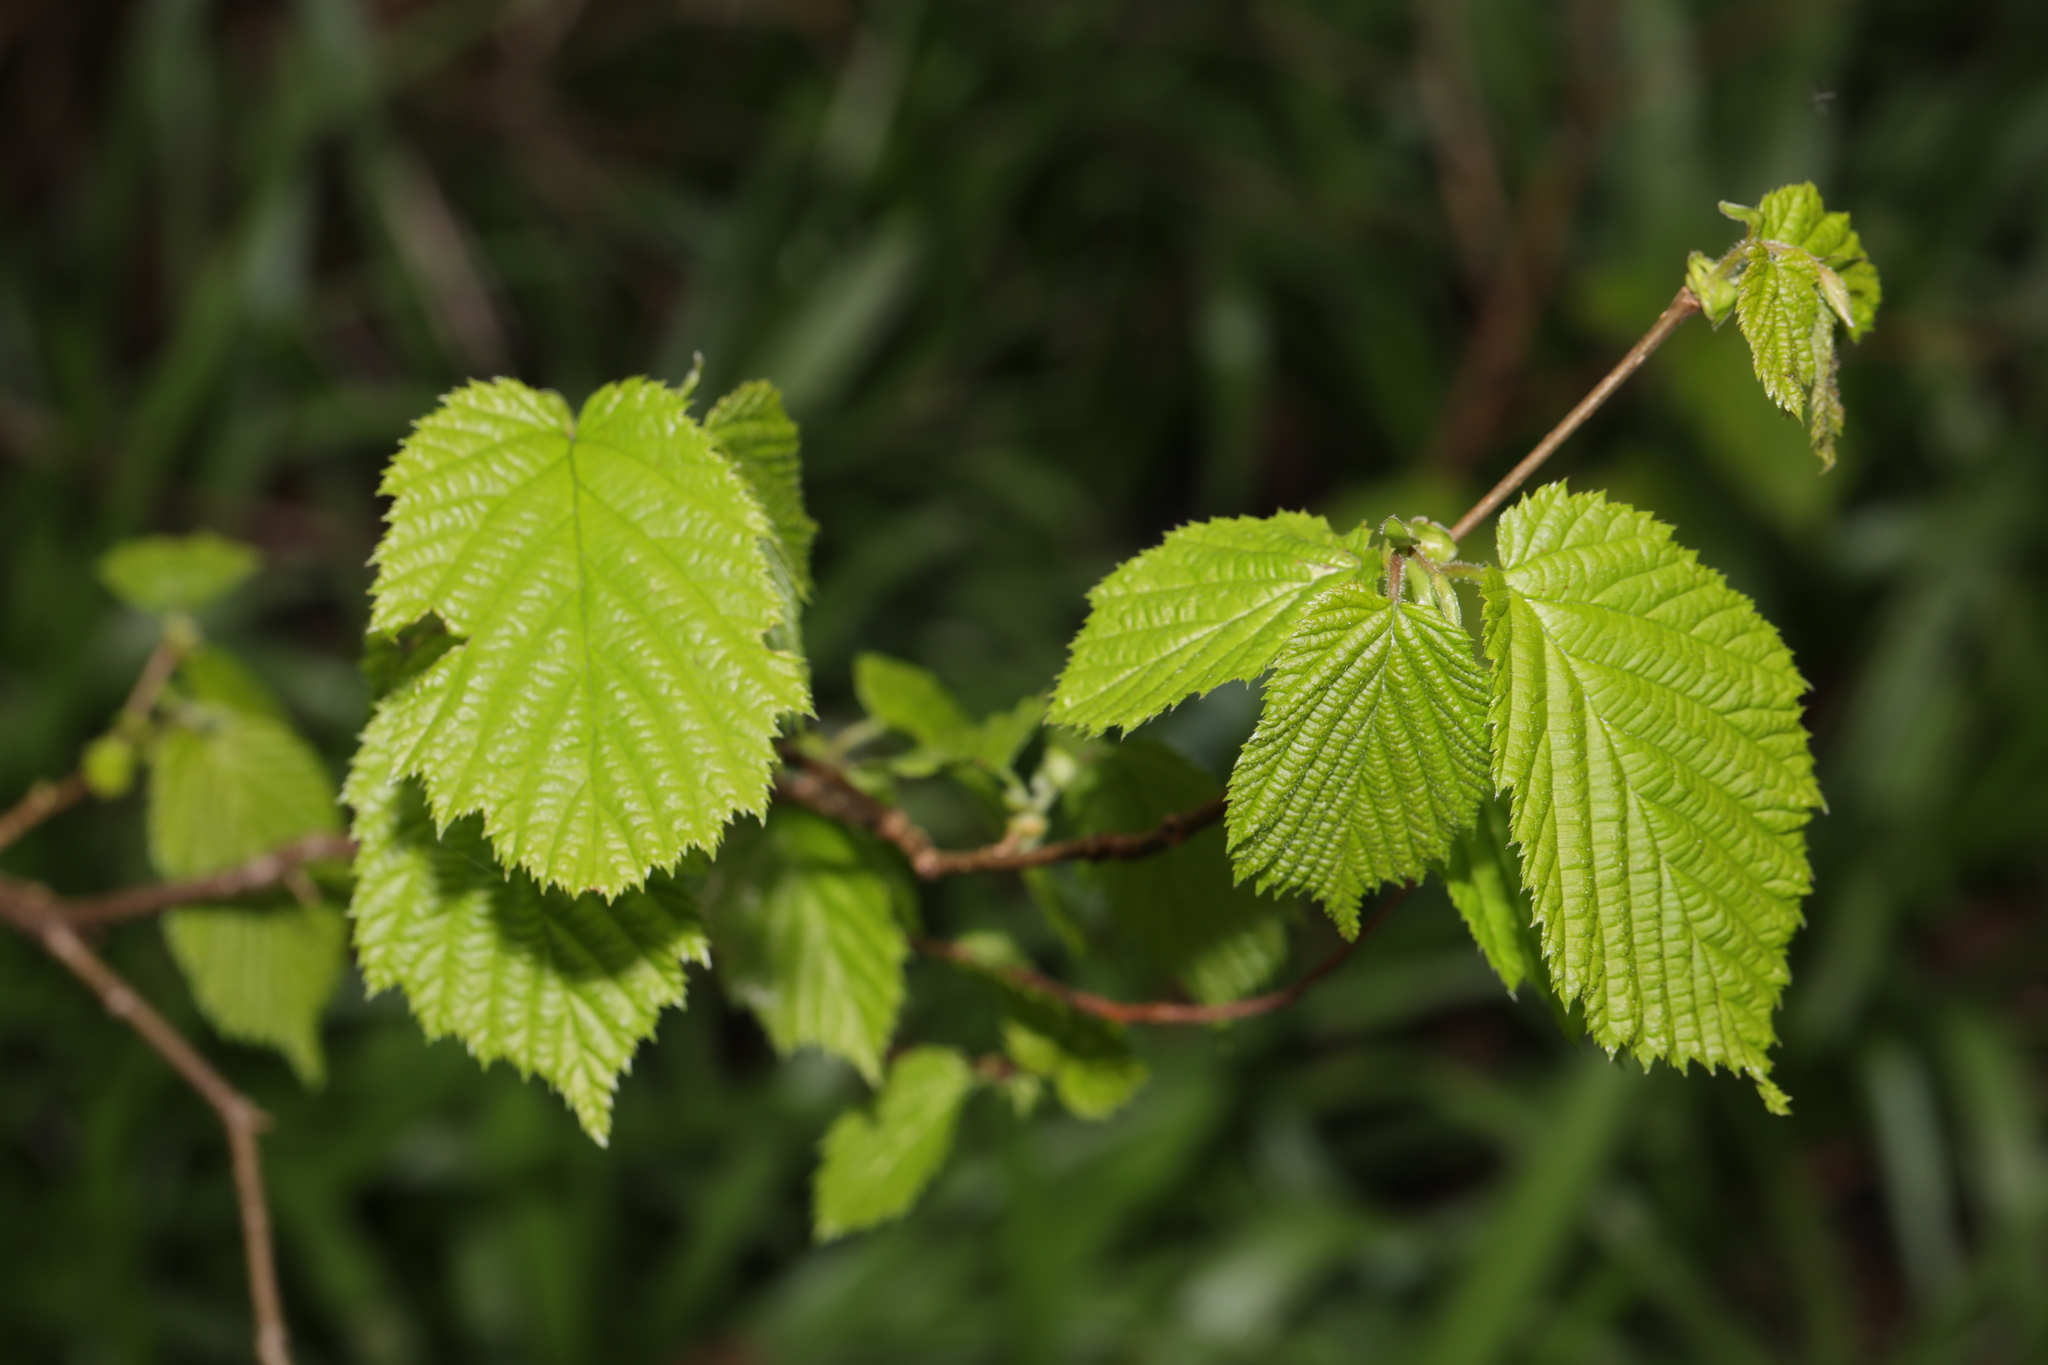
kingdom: Plantae
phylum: Tracheophyta
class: Magnoliopsida
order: Fagales
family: Betulaceae
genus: Corylus
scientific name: Corylus avellana
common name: European hazel
